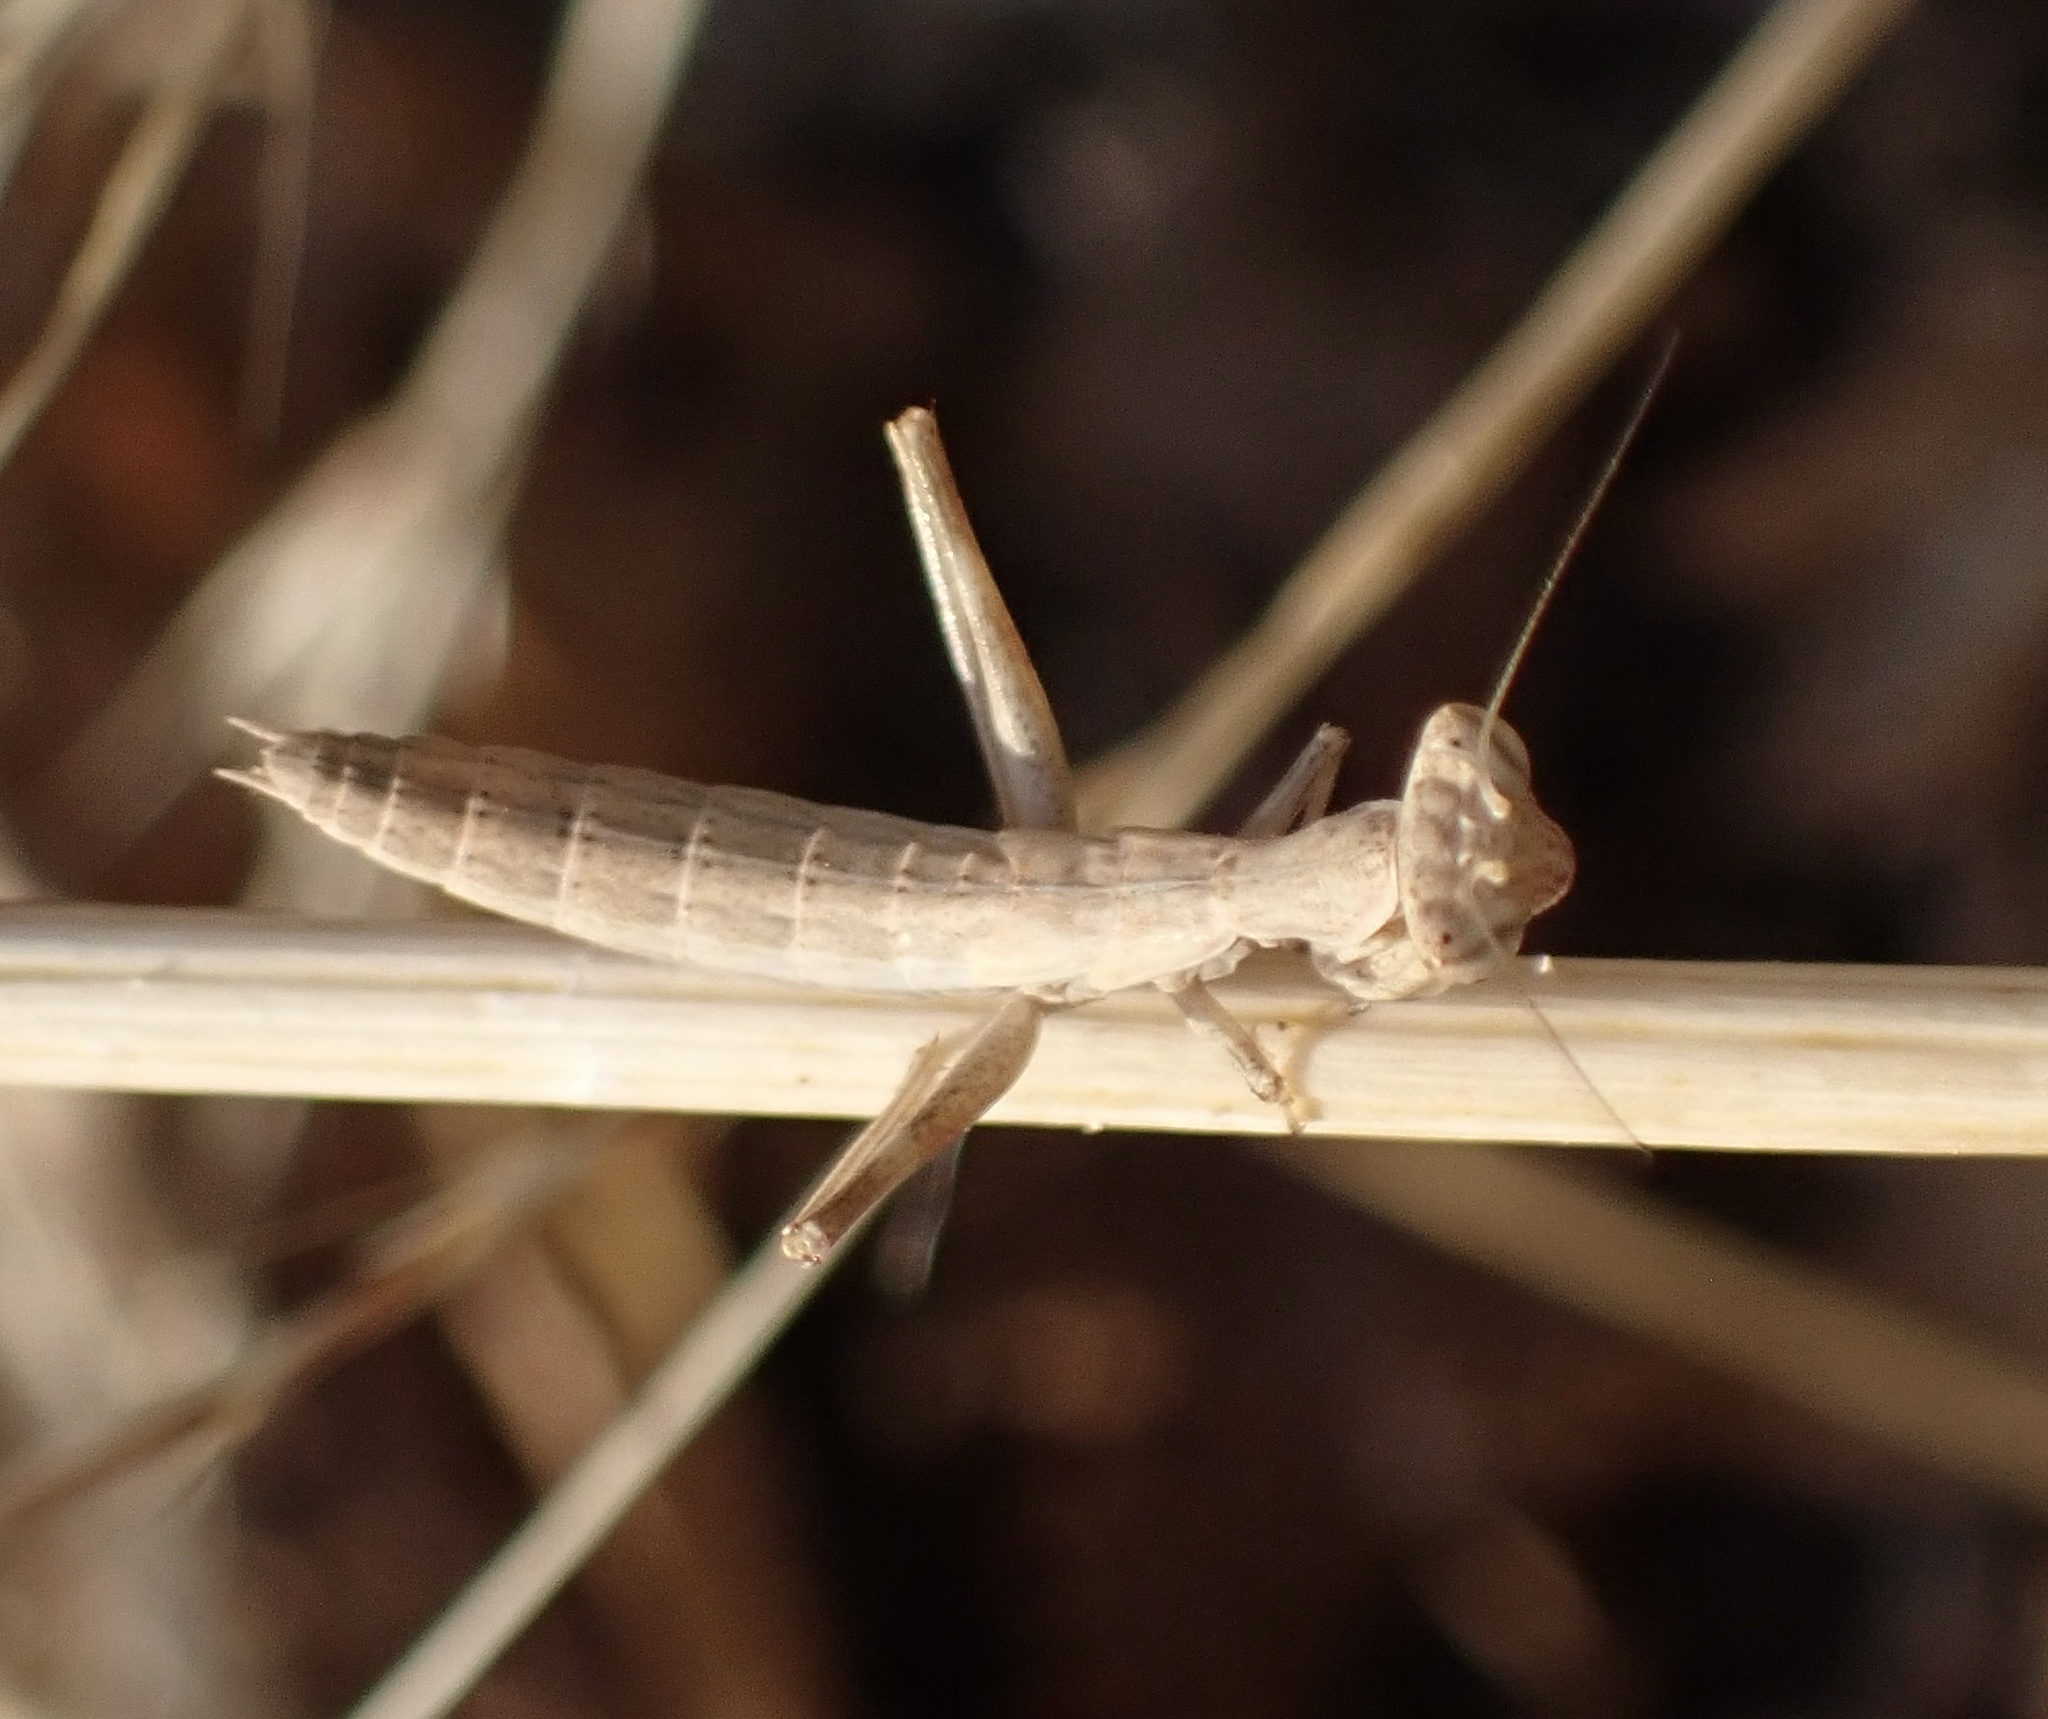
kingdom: Animalia
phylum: Arthropoda
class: Insecta
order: Mantodea
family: Amelidae
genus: Ameles
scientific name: Ameles decolor
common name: Dwarf mantis
